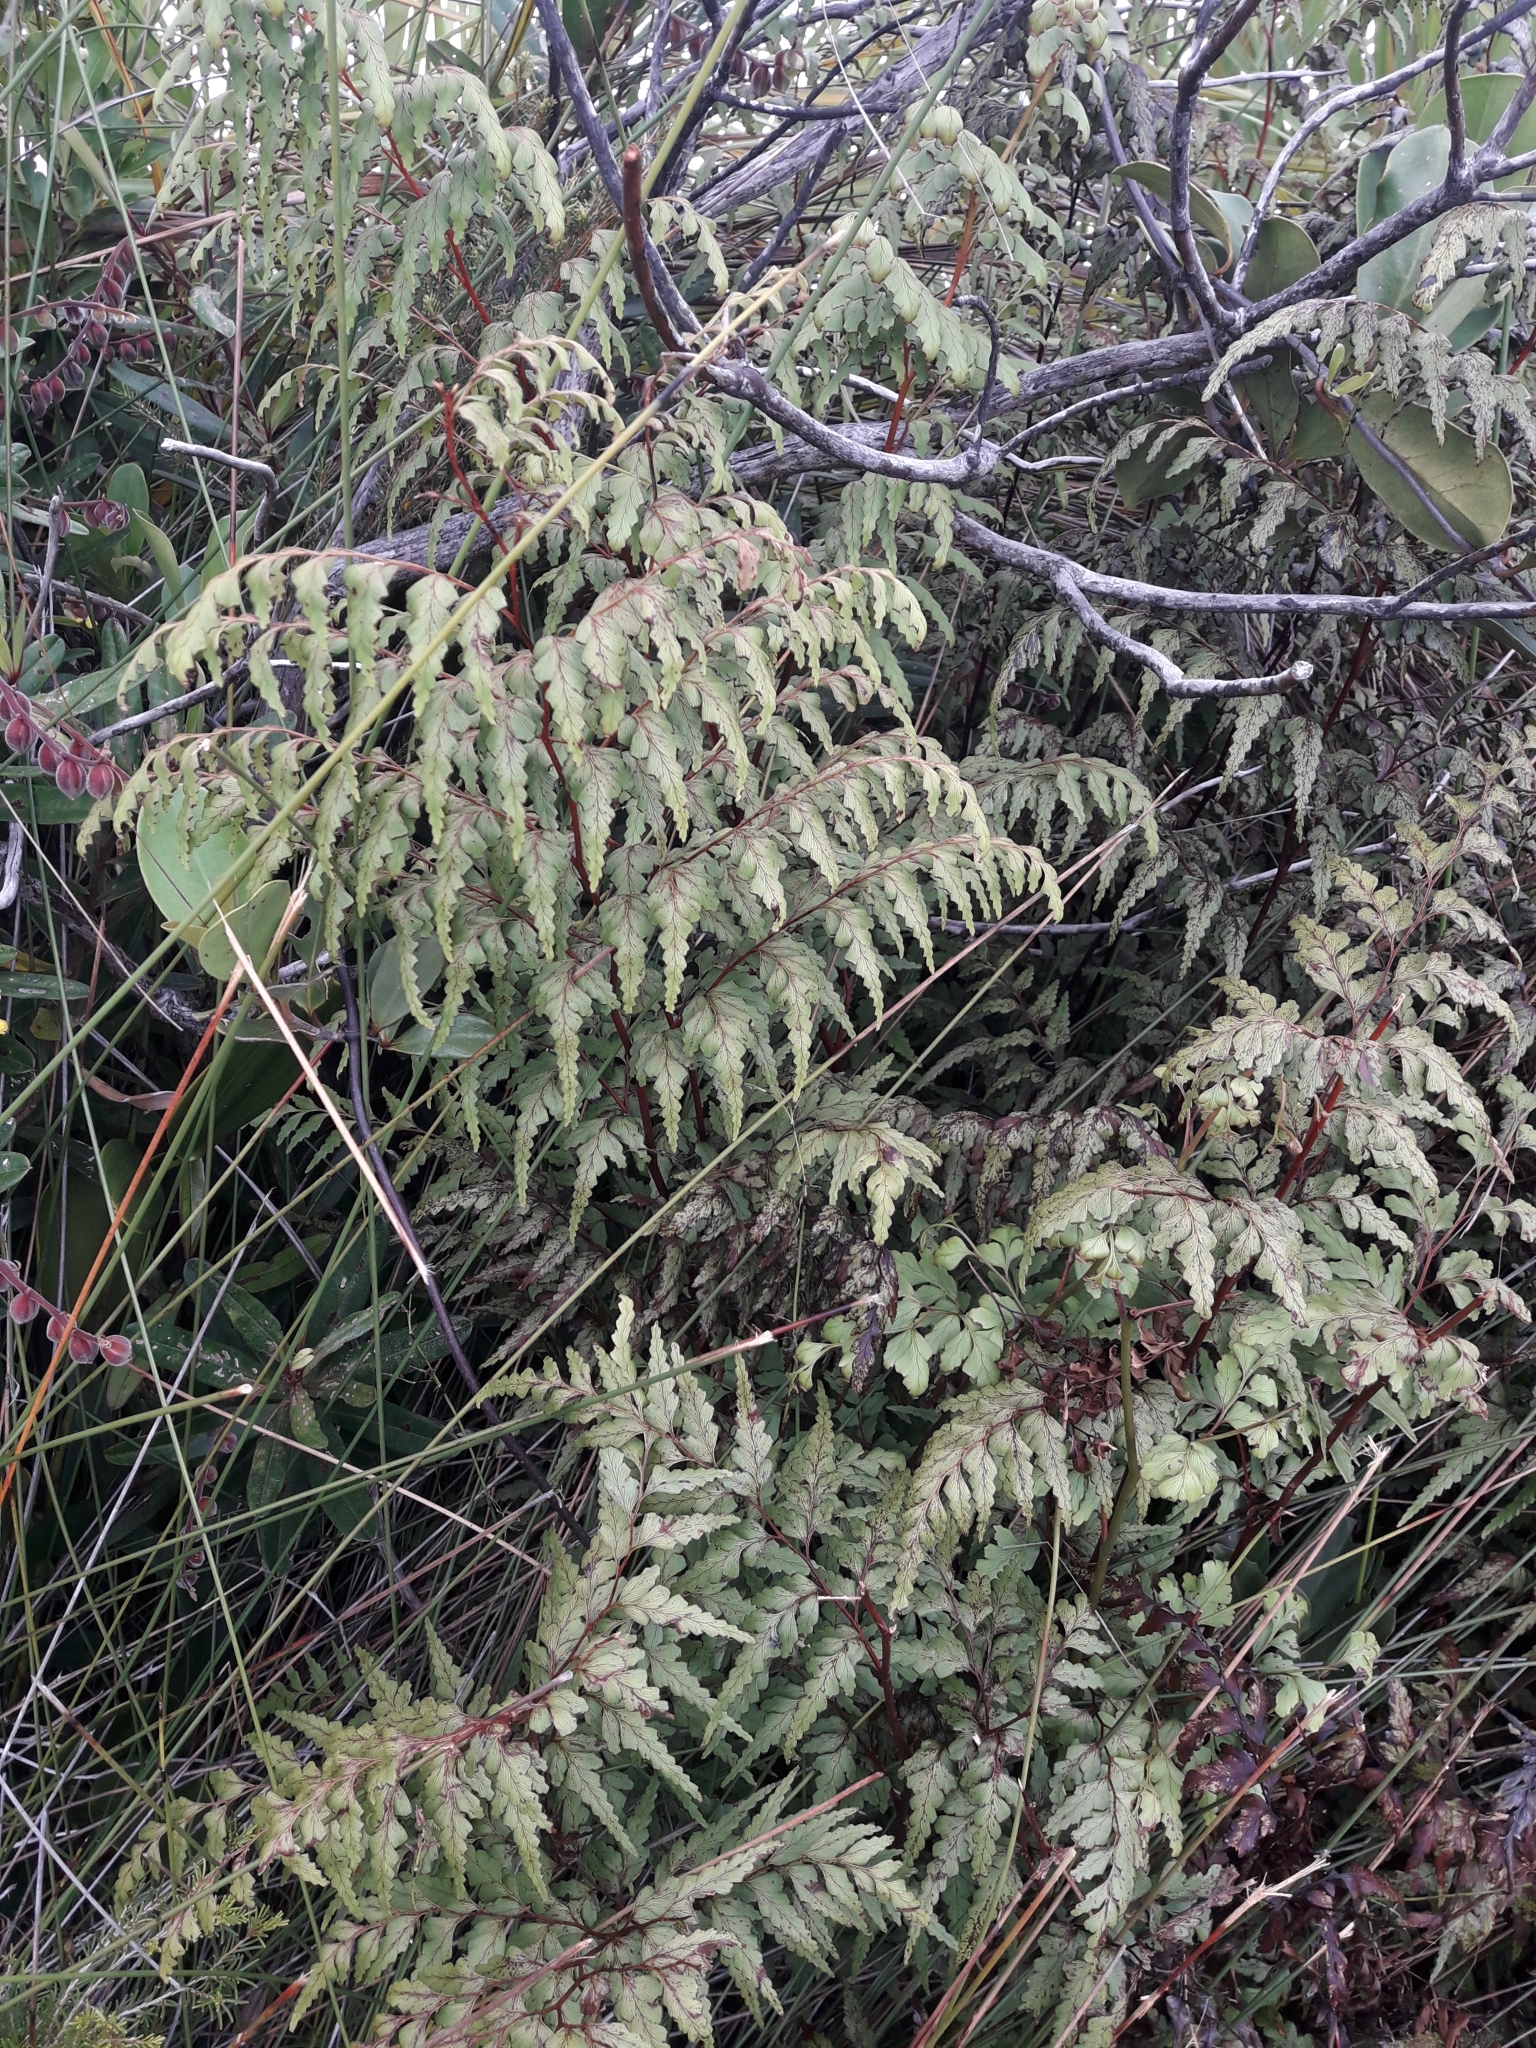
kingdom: Plantae
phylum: Tracheophyta
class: Polypodiopsida
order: Polypodiales
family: Lindsaeaceae
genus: Odontosoria
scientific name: Odontosoria deltoidea
